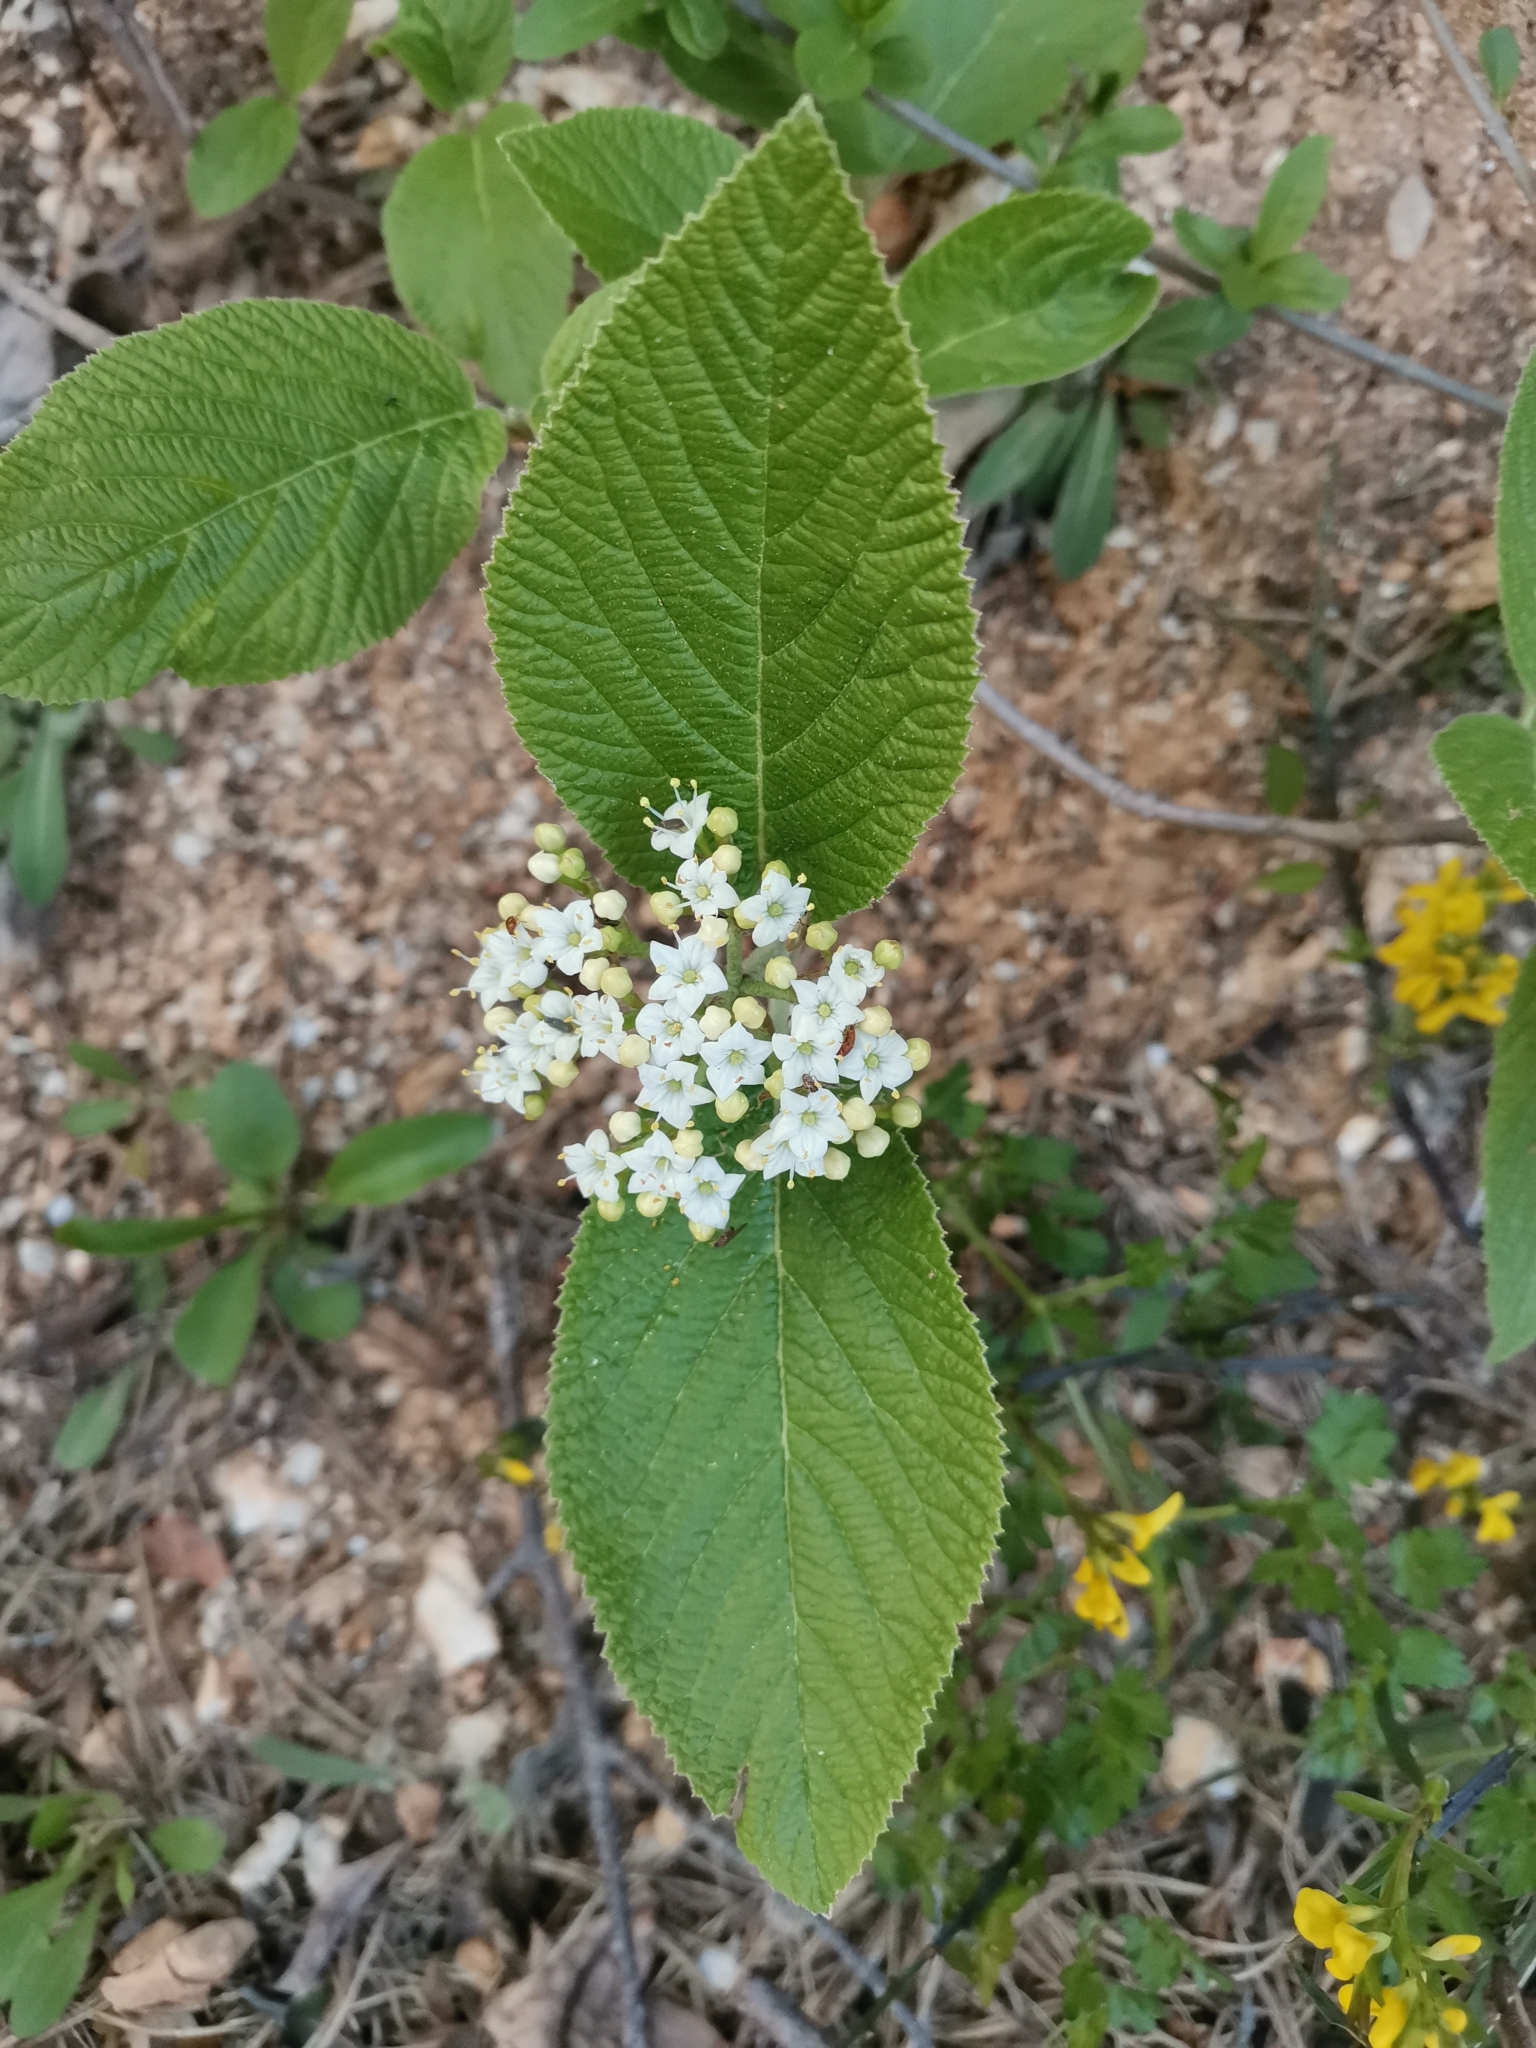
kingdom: Plantae
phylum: Tracheophyta
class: Magnoliopsida
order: Dipsacales
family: Viburnaceae
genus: Viburnum
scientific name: Viburnum lantana
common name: Wayfaring tree
